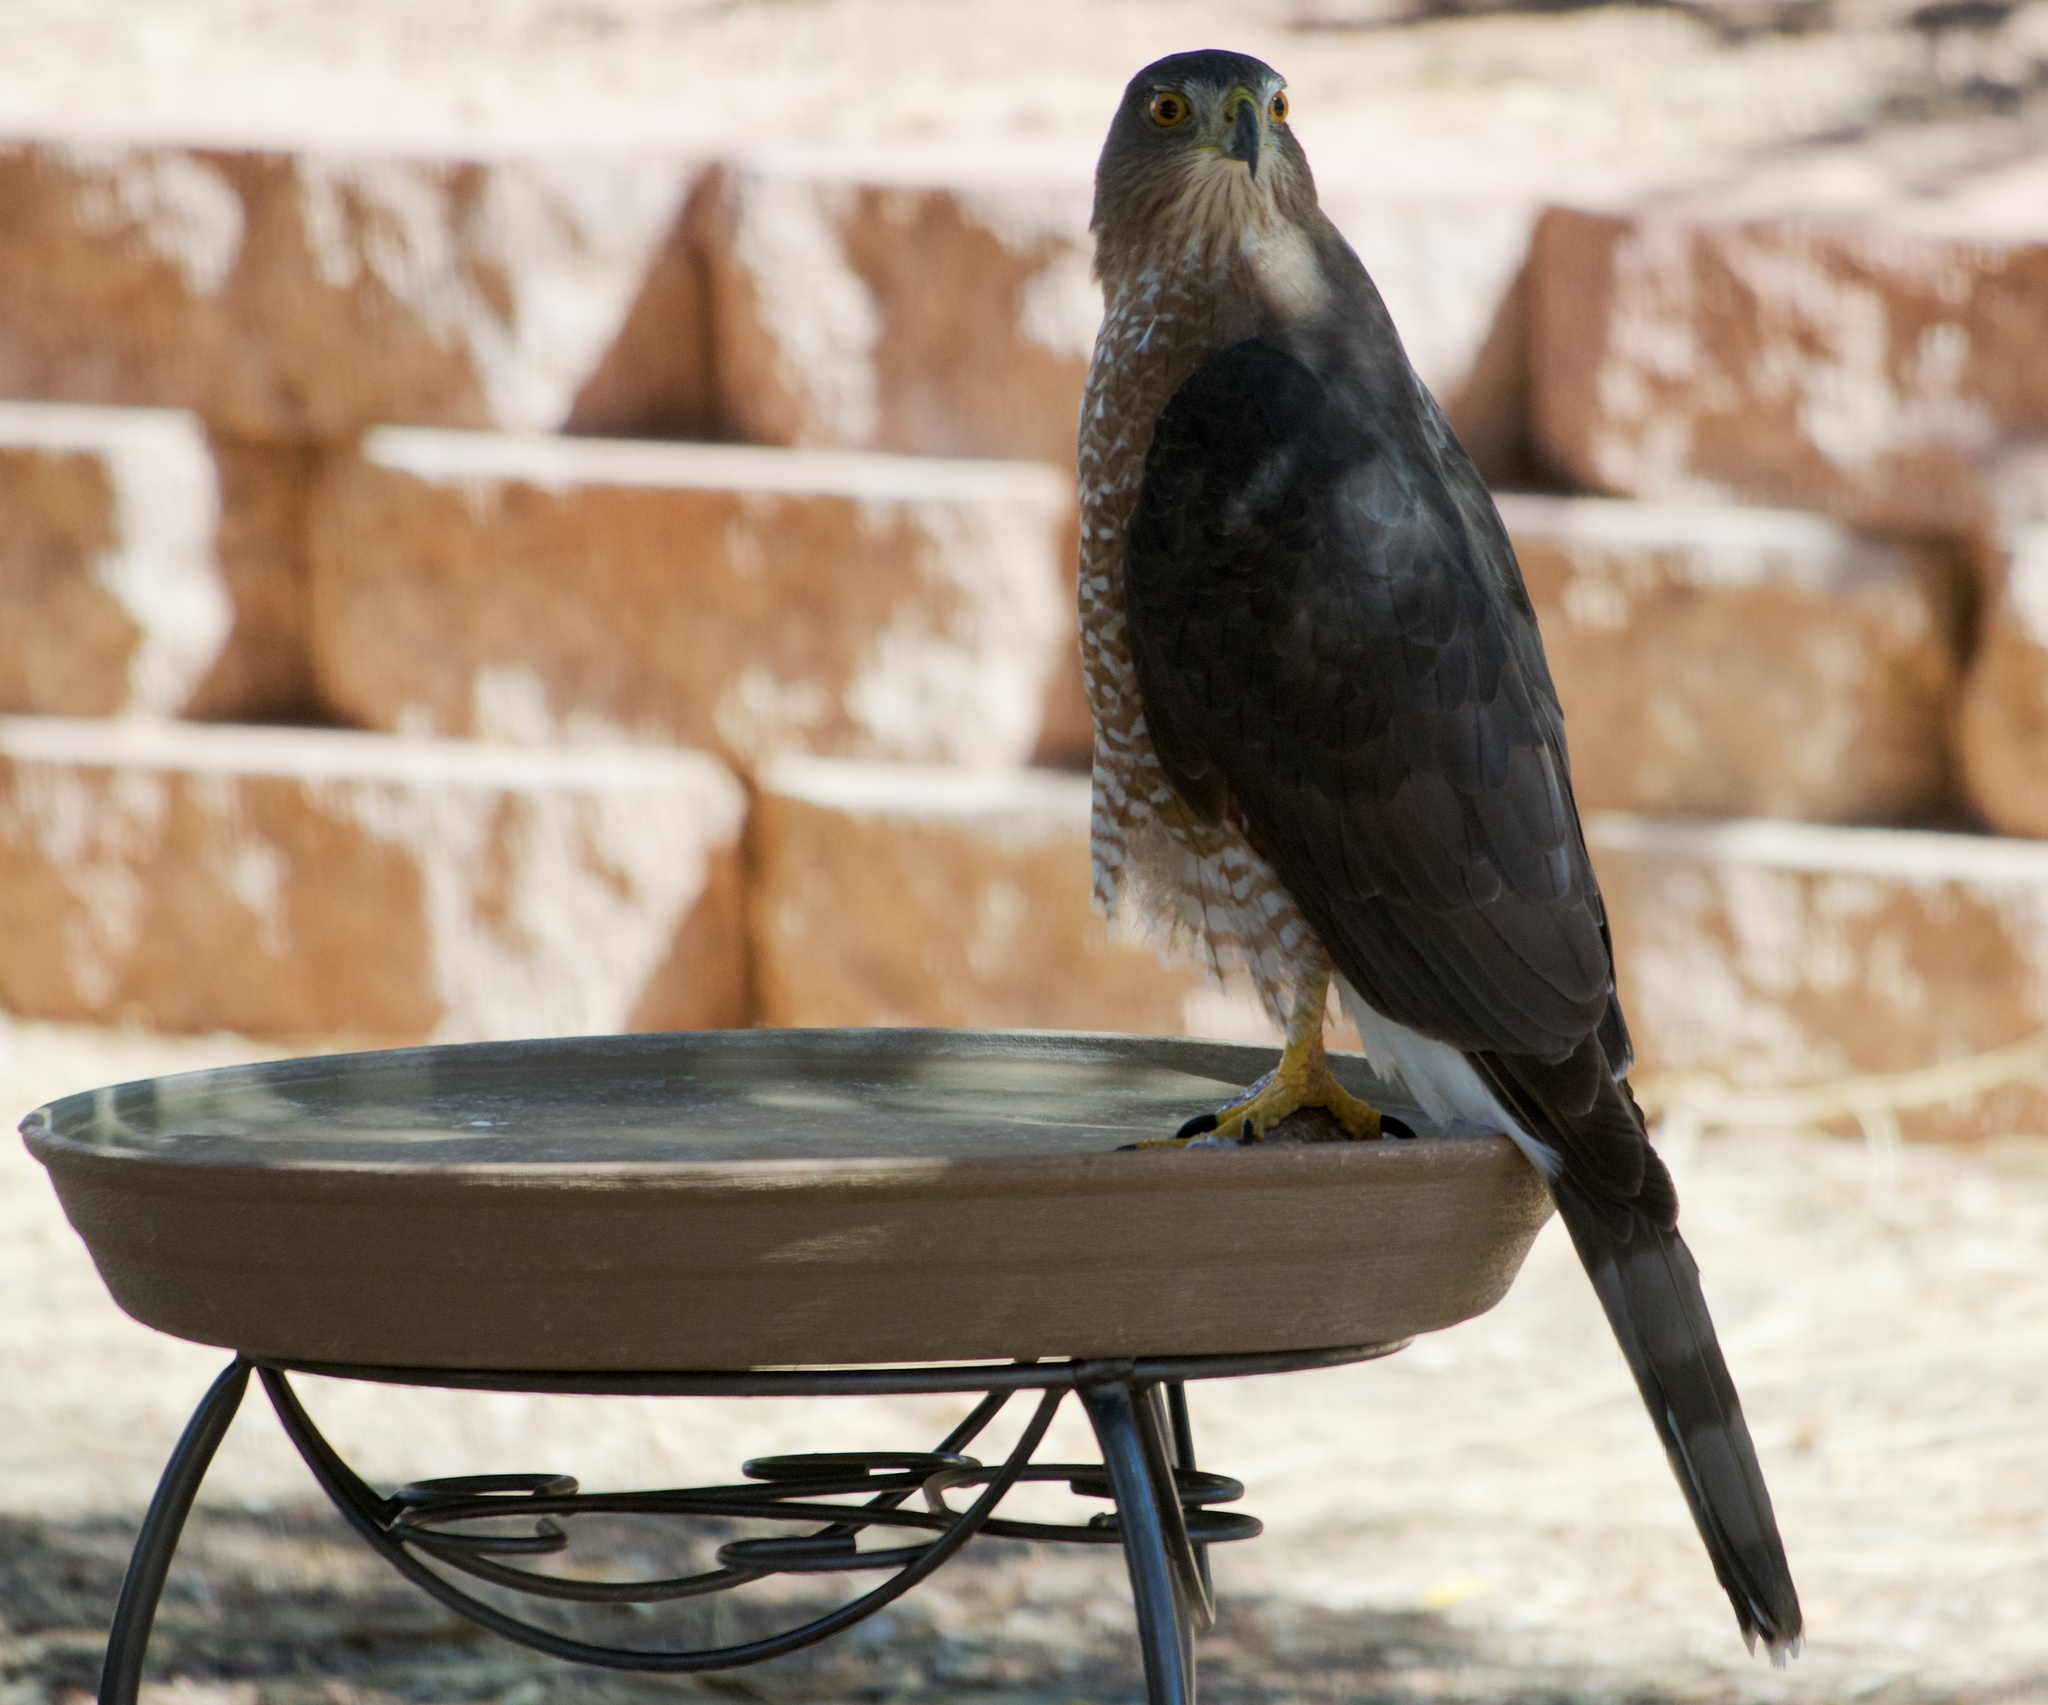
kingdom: Animalia
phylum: Chordata
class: Aves
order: Accipitriformes
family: Accipitridae
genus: Accipiter
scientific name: Accipiter cooperii
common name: Cooper's hawk
